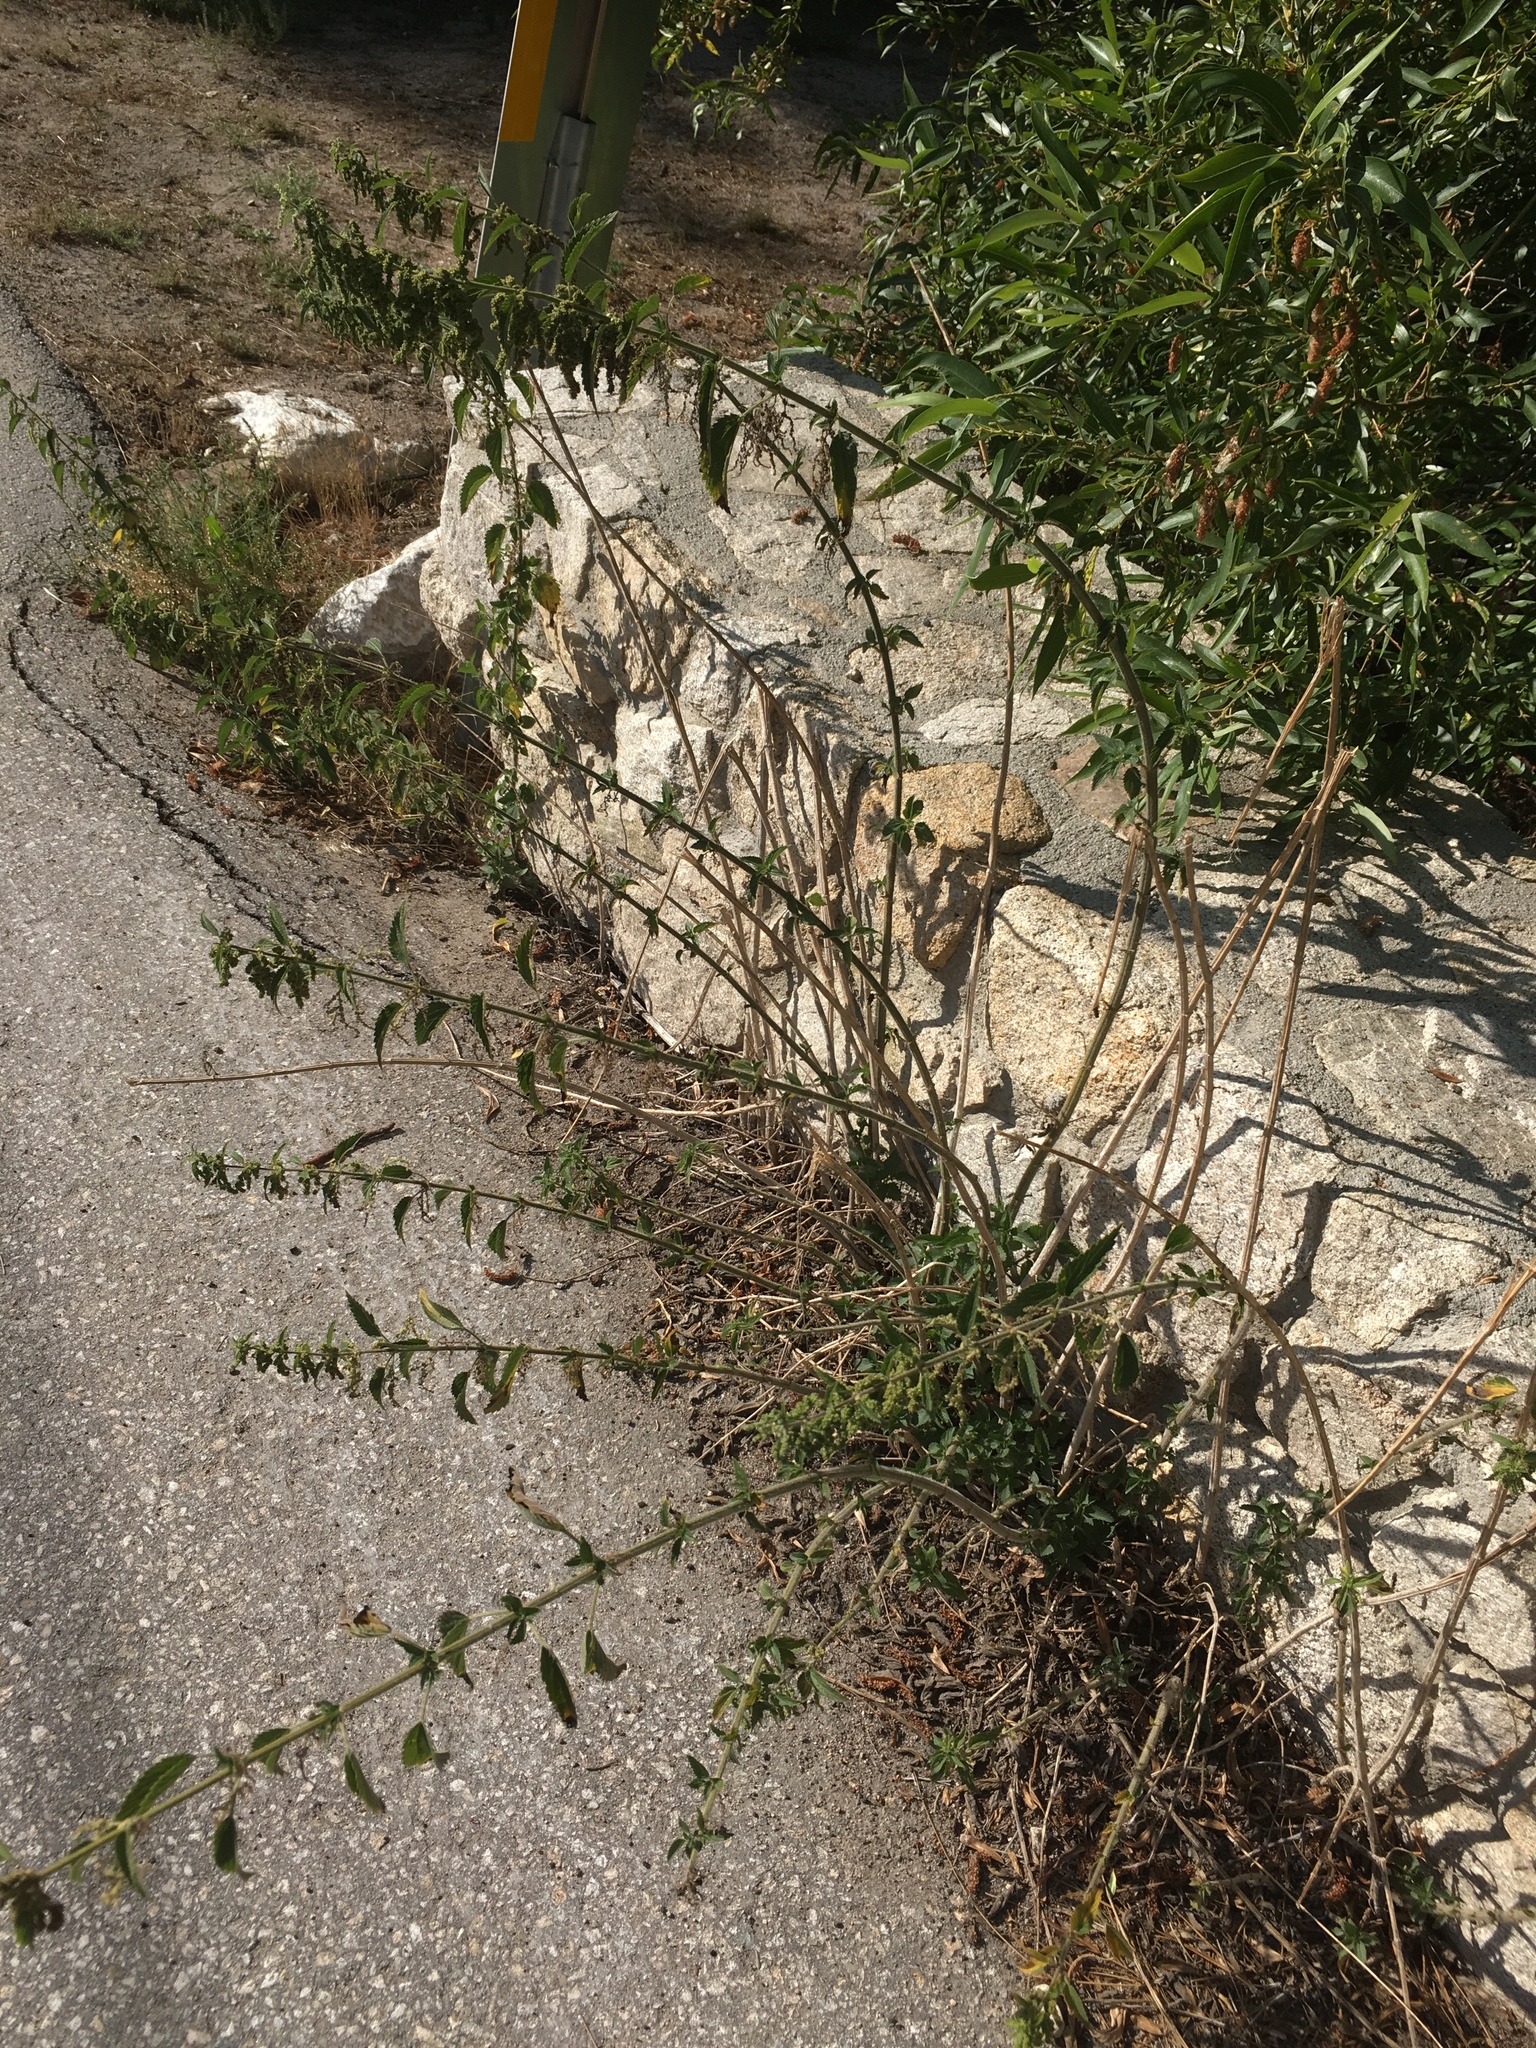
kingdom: Plantae
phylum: Tracheophyta
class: Magnoliopsida
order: Rosales
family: Urticaceae
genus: Urtica
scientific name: Urtica dioica
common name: Common nettle
